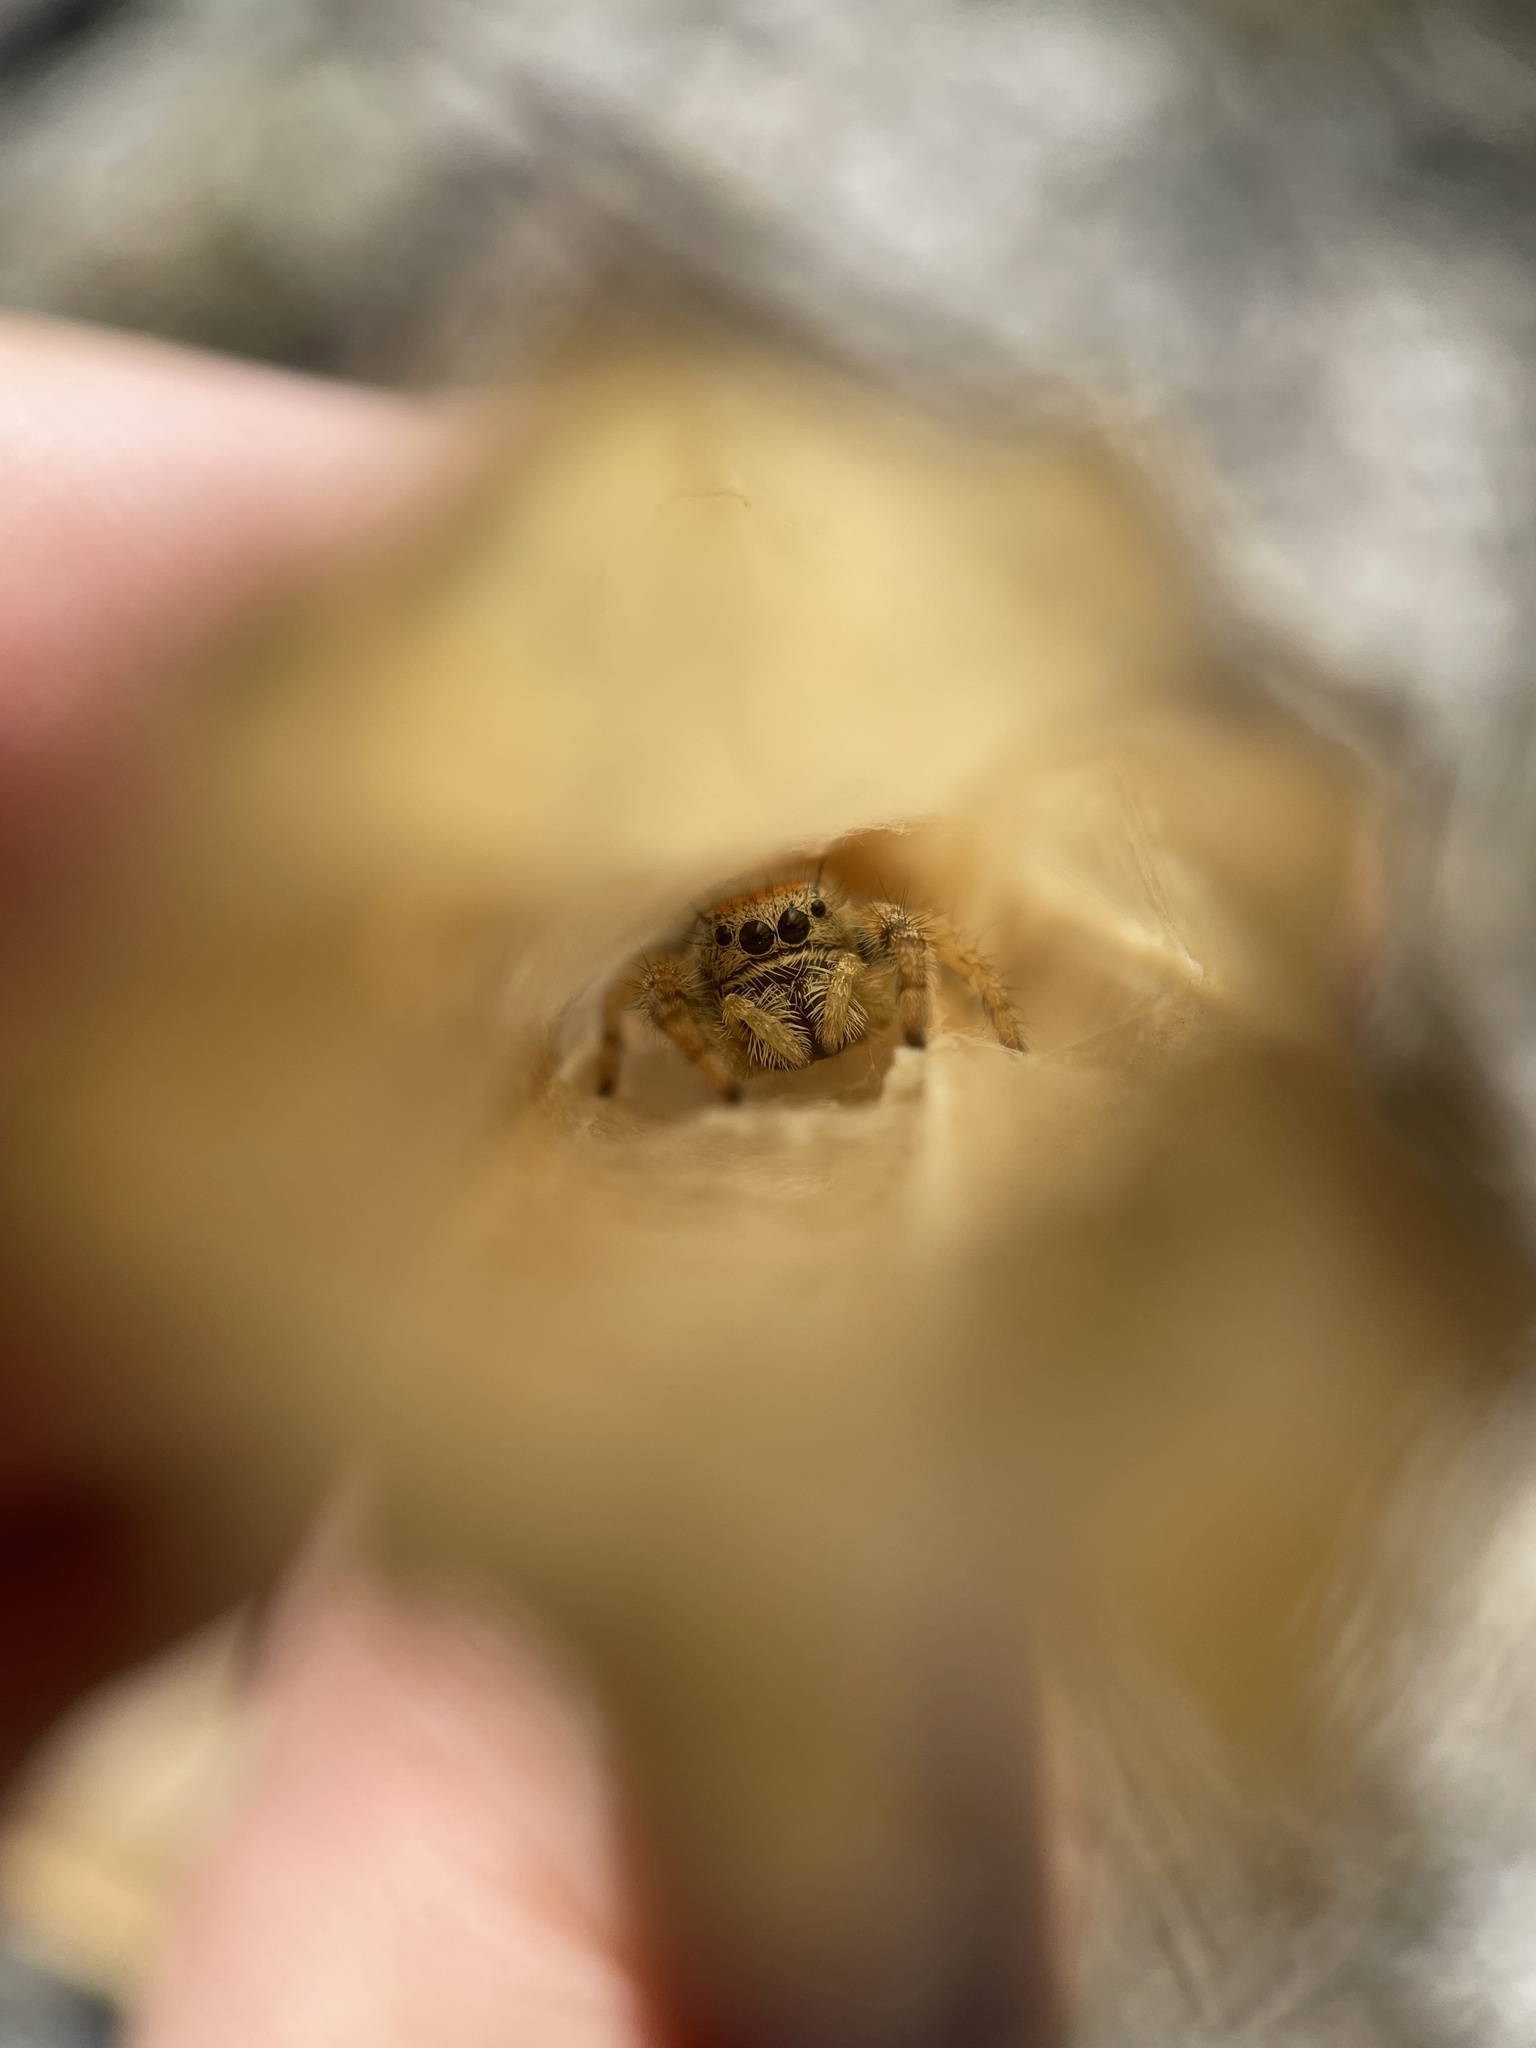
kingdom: Animalia
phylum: Arthropoda
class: Arachnida
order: Araneae
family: Salticidae
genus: Phidippus
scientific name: Phidippus apacheanus
